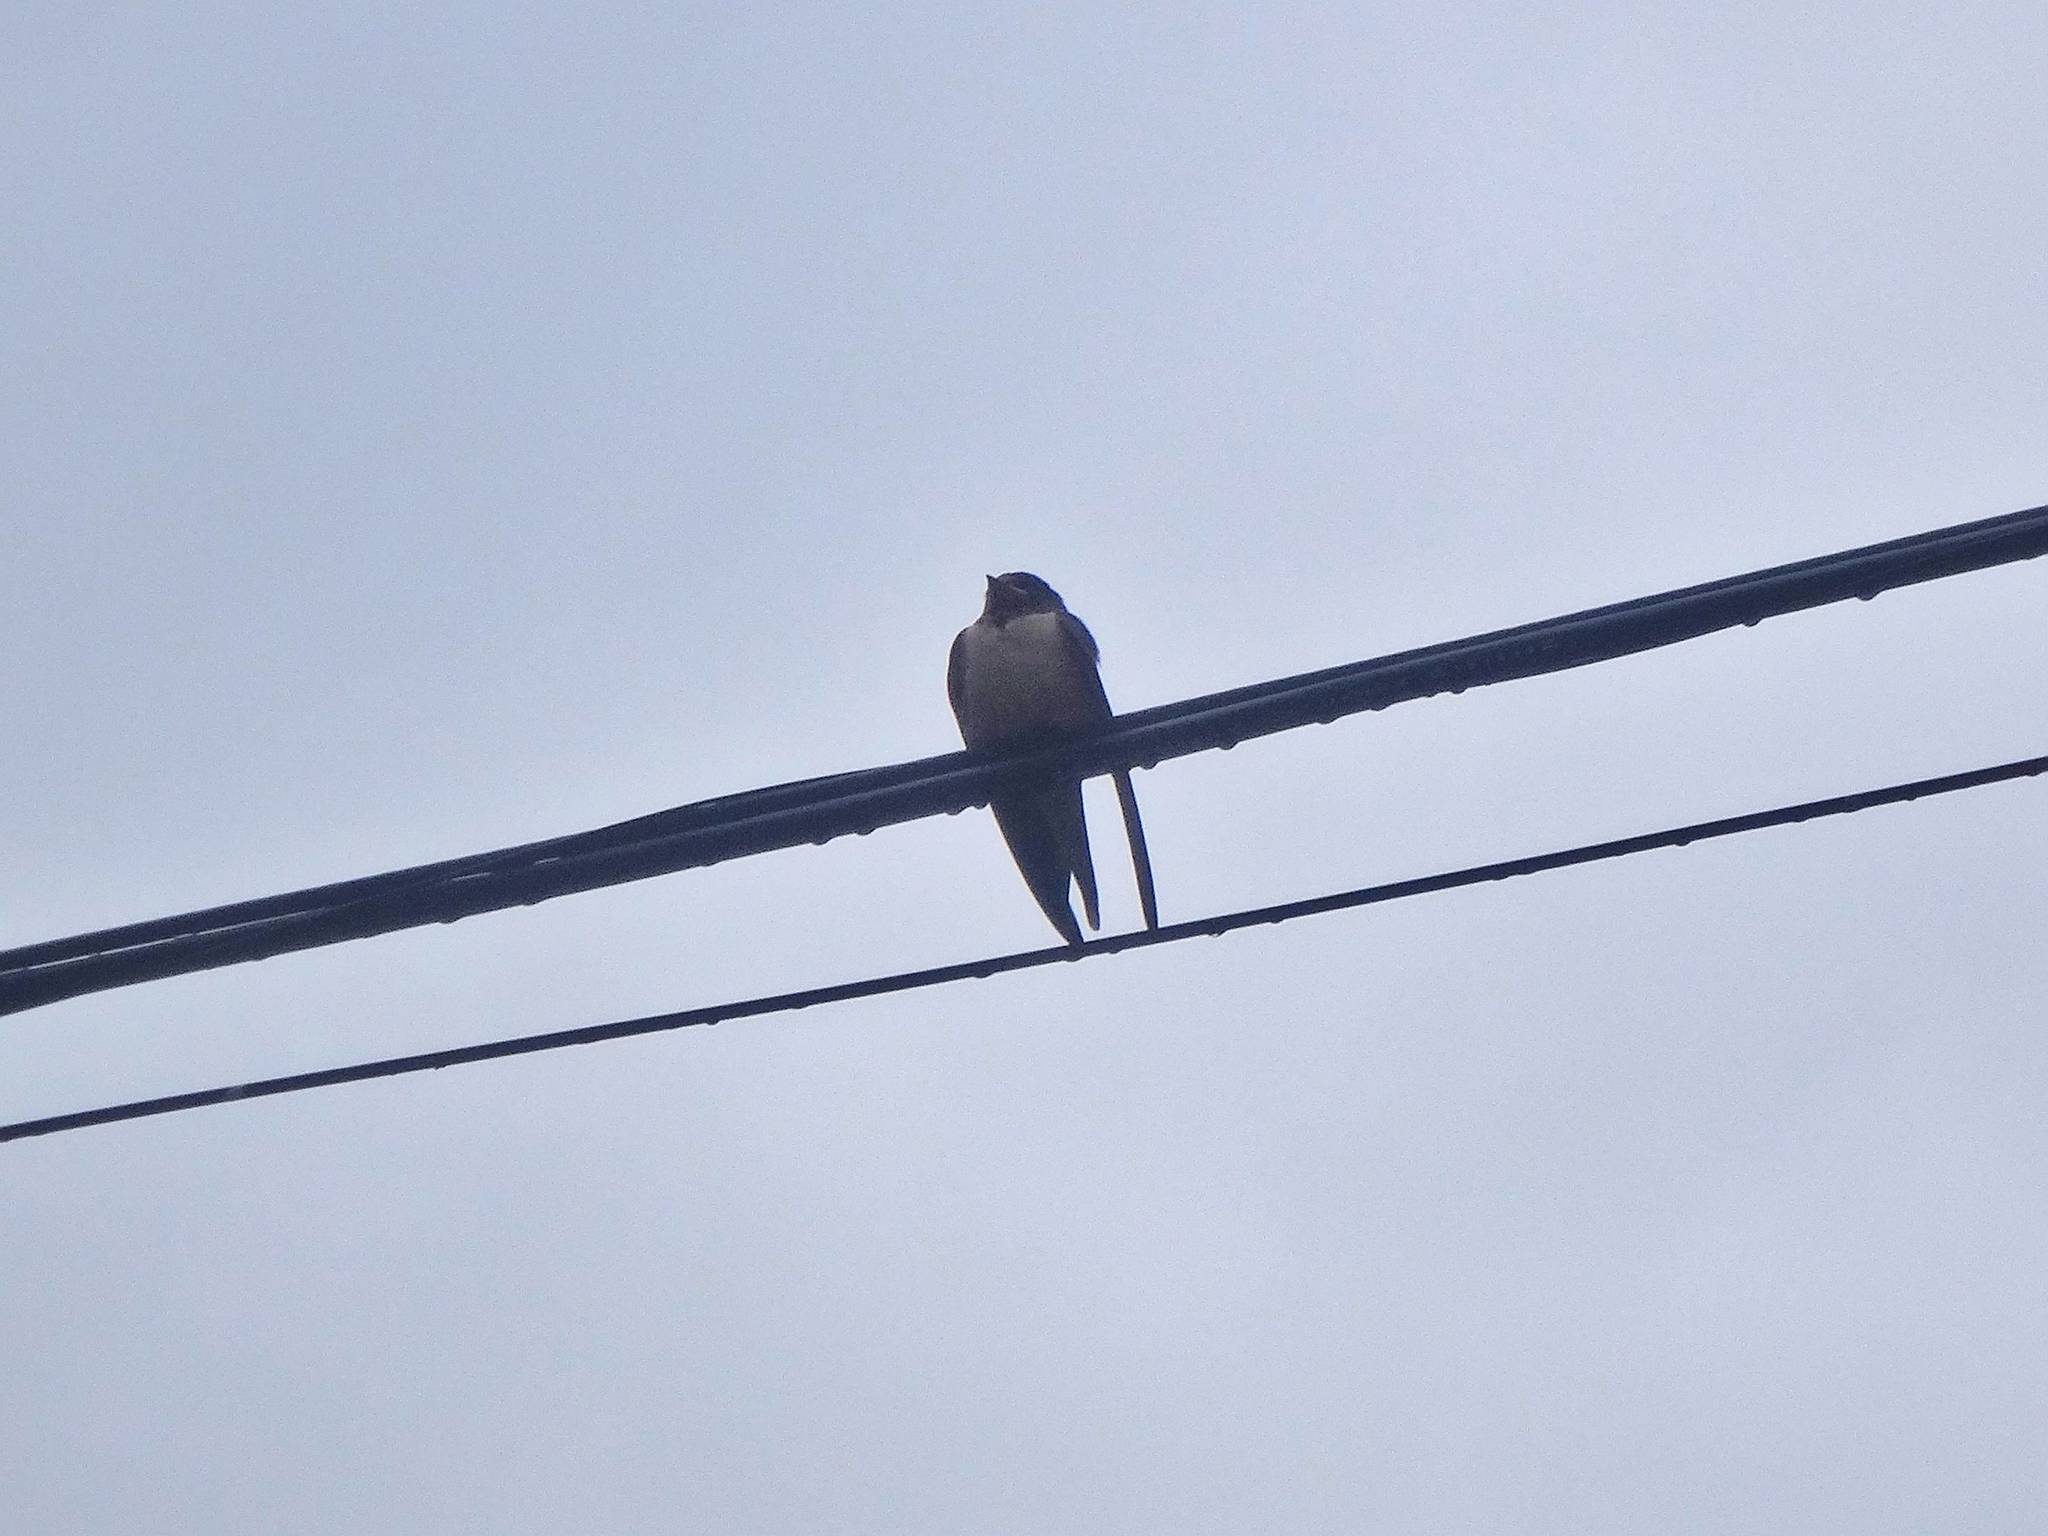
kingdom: Animalia
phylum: Chordata
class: Aves
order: Passeriformes
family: Hirundinidae
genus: Hirundo
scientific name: Hirundo rustica
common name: Barn swallow
